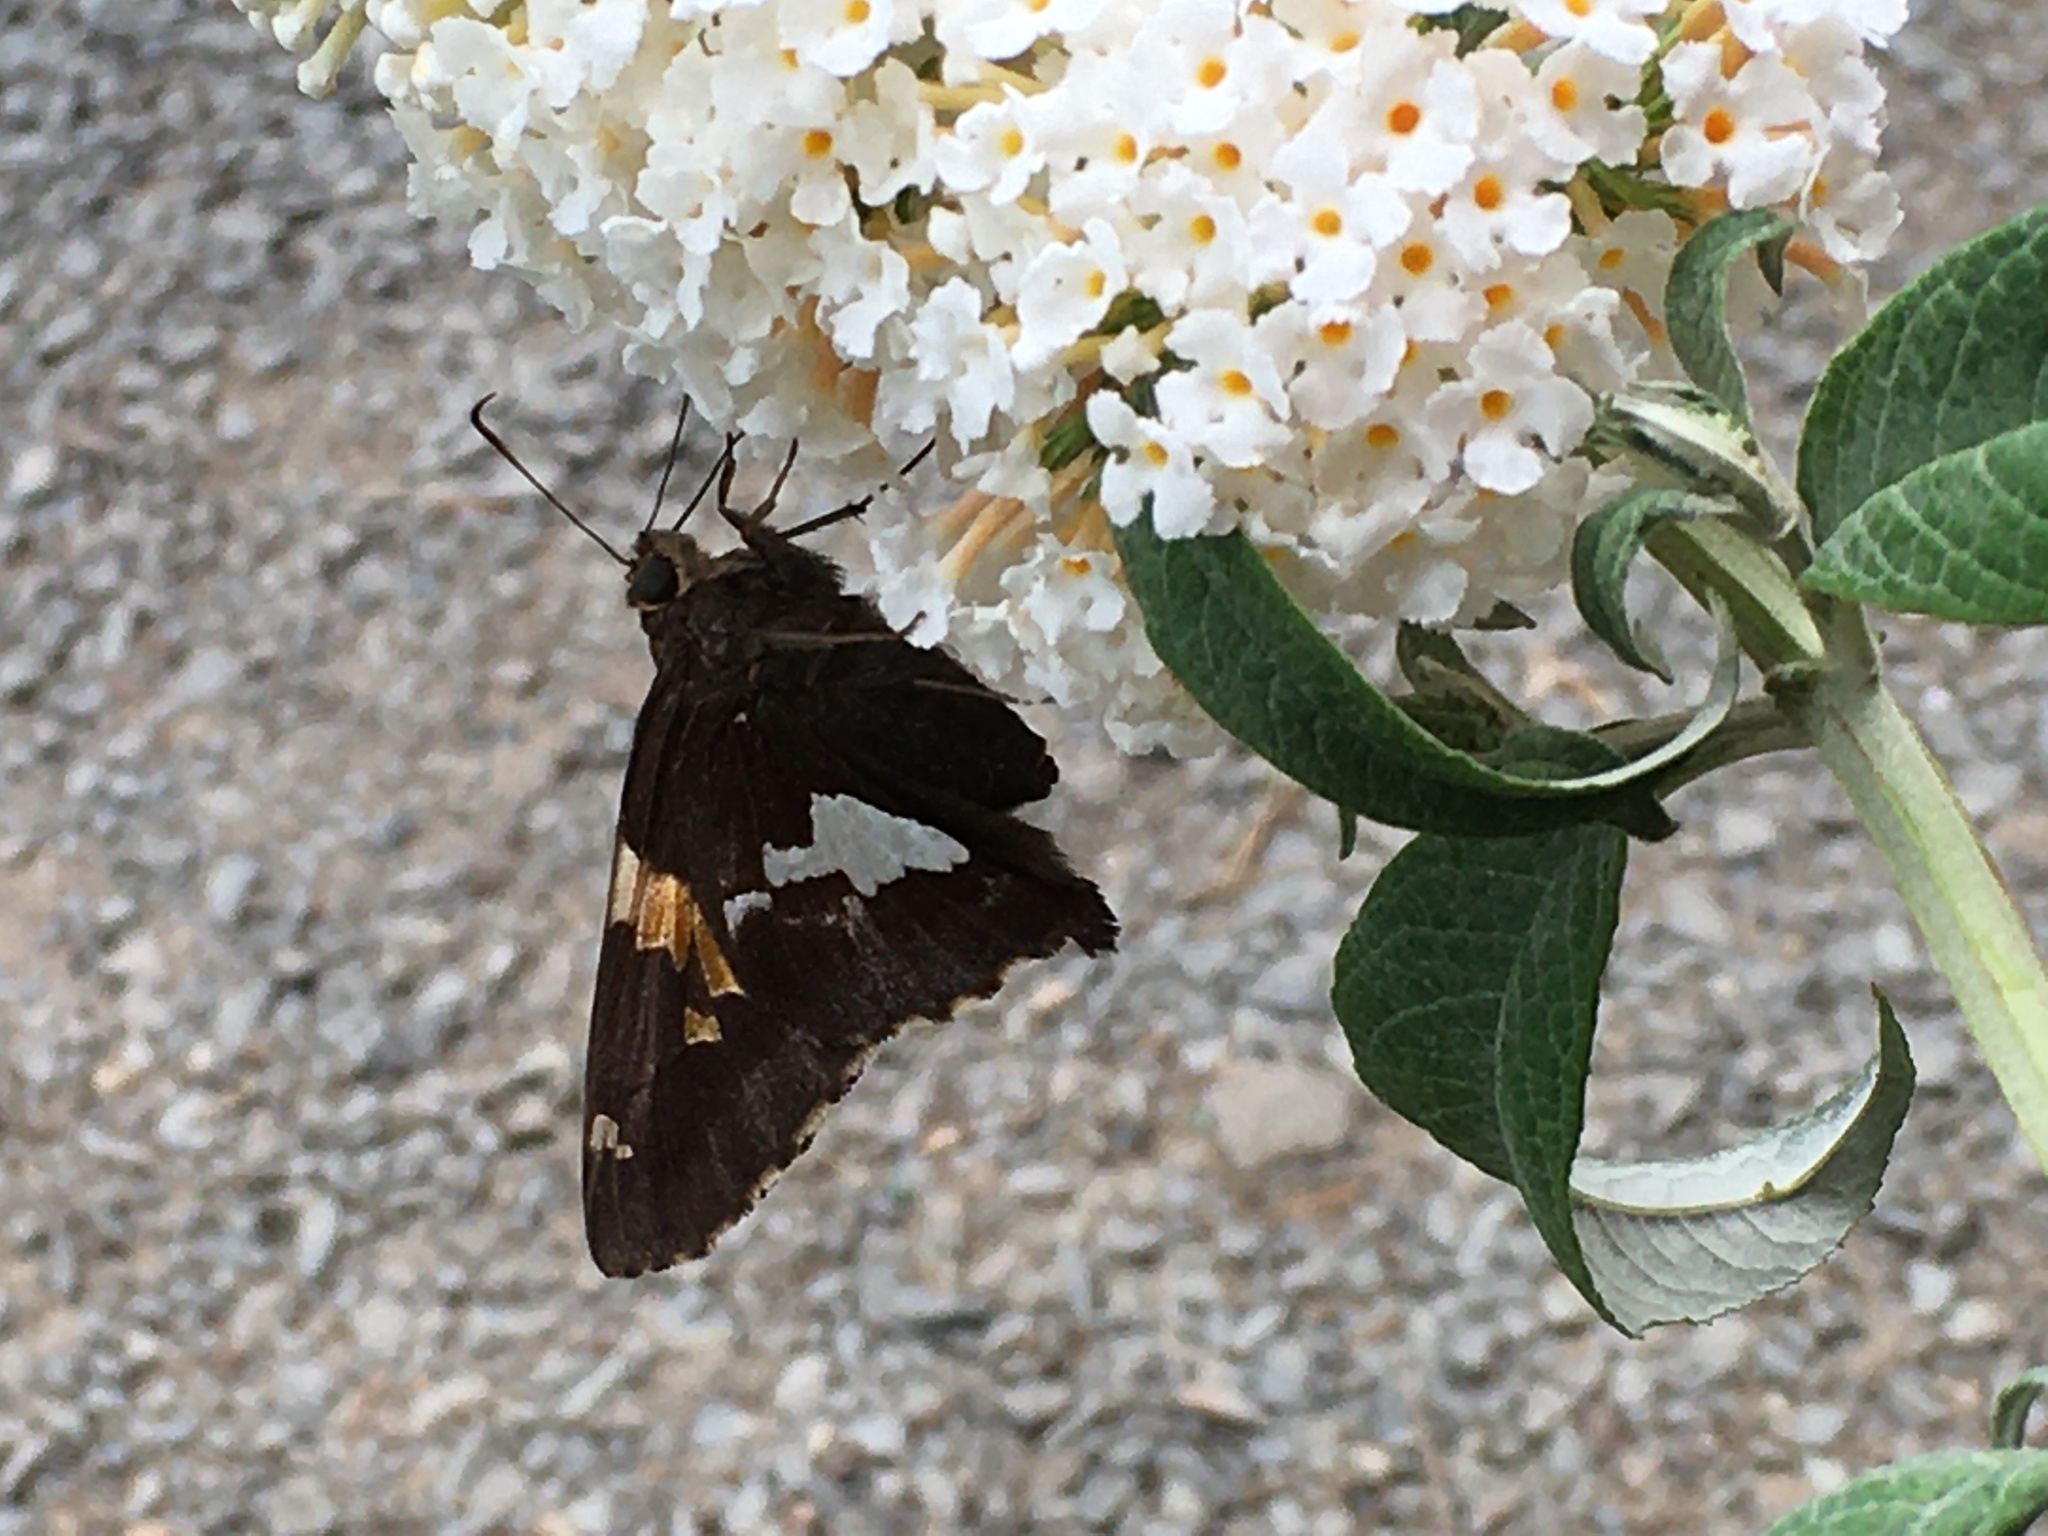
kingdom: Animalia
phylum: Arthropoda
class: Insecta
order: Lepidoptera
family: Hesperiidae
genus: Epargyreus
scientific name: Epargyreus clarus
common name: Silver-spotted skipper
